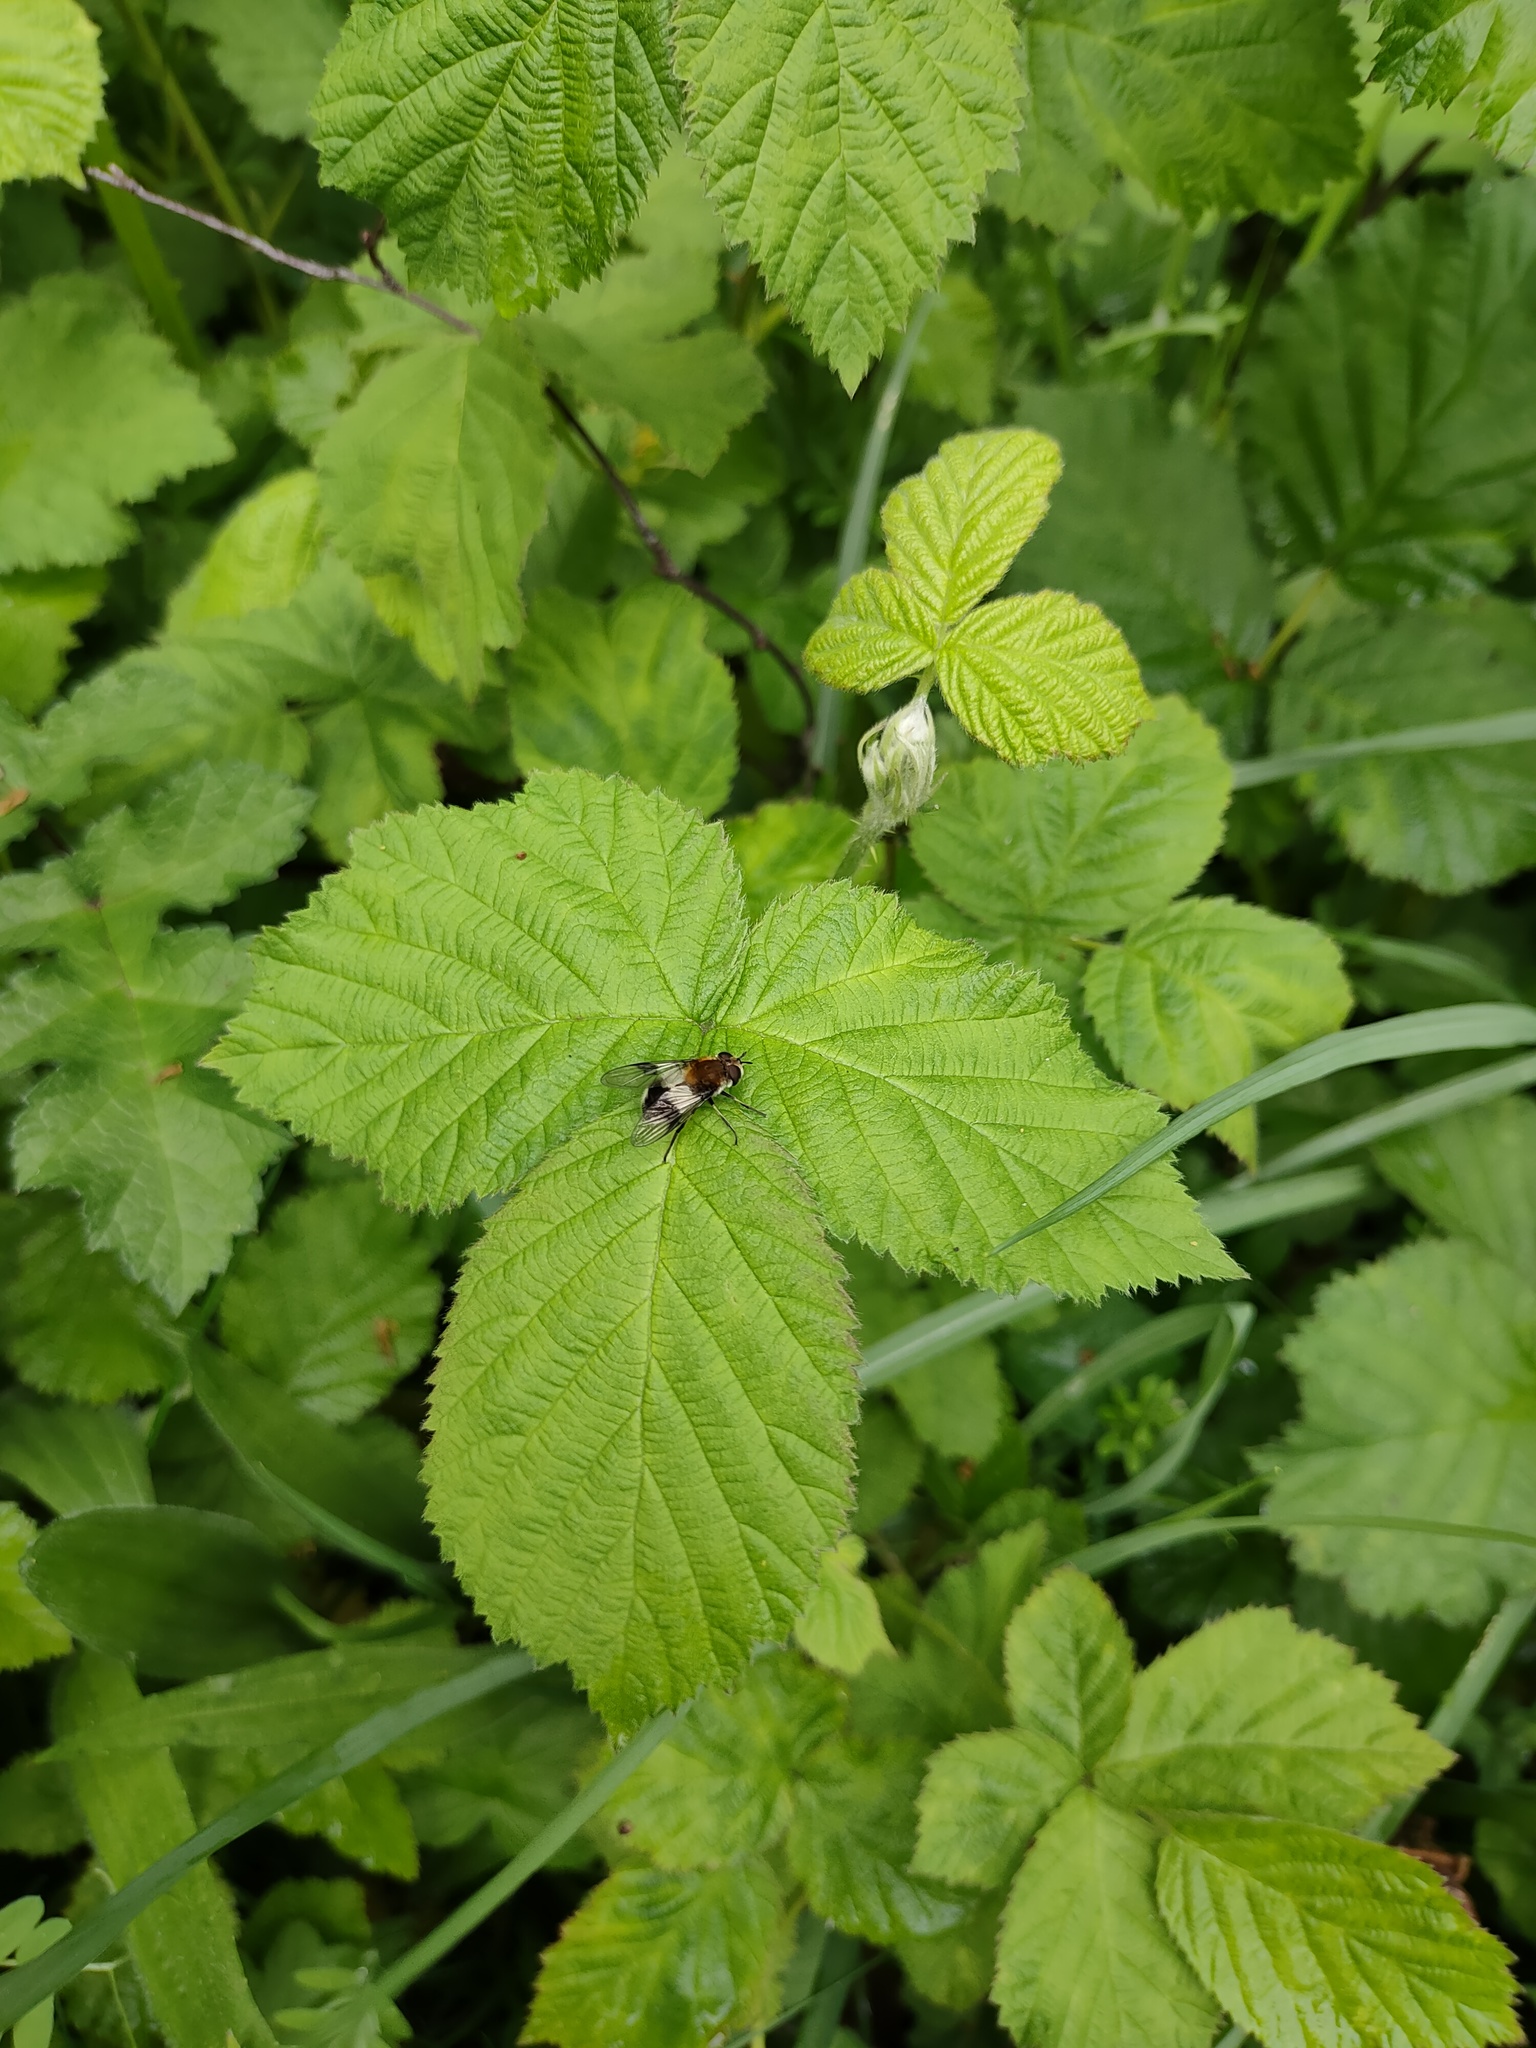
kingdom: Animalia
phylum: Arthropoda
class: Insecta
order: Diptera
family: Syrphidae
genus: Leucozona
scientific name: Leucozona lucorum
